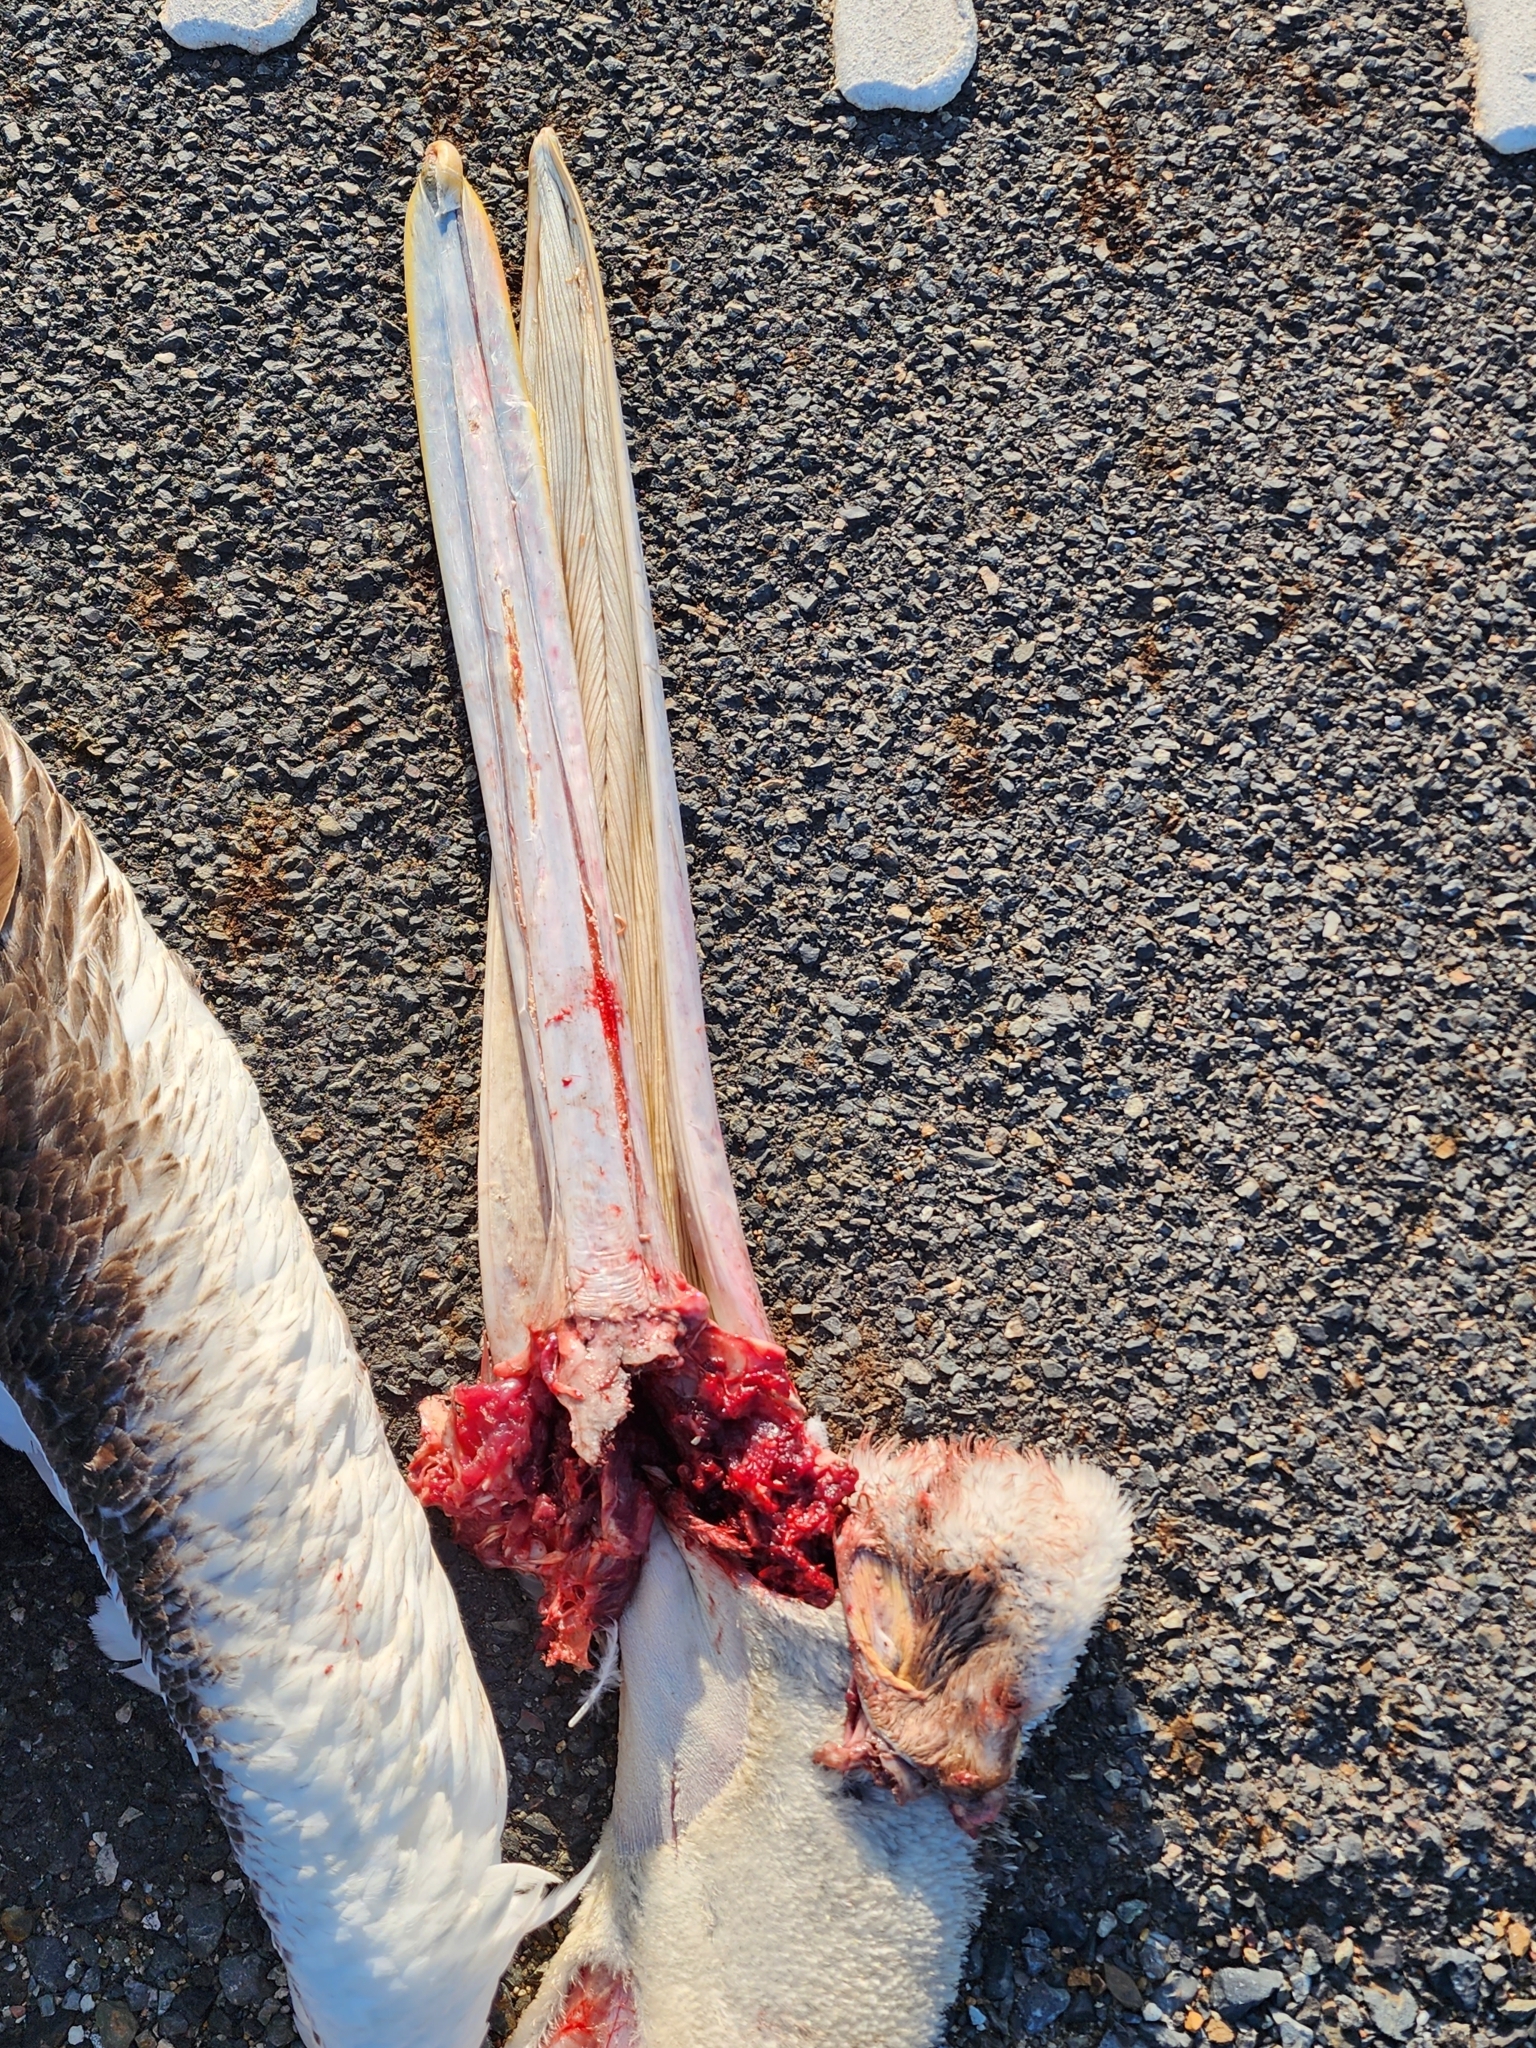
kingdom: Animalia
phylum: Chordata
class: Aves
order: Pelecaniformes
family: Pelecanidae
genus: Pelecanus
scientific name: Pelecanus conspicillatus
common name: Australian pelican
